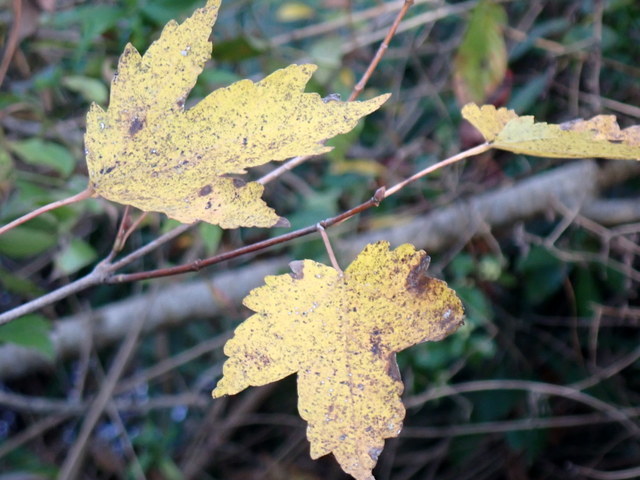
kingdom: Plantae
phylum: Tracheophyta
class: Magnoliopsida
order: Sapindales
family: Sapindaceae
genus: Acer
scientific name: Acer rubrum
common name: Red maple
